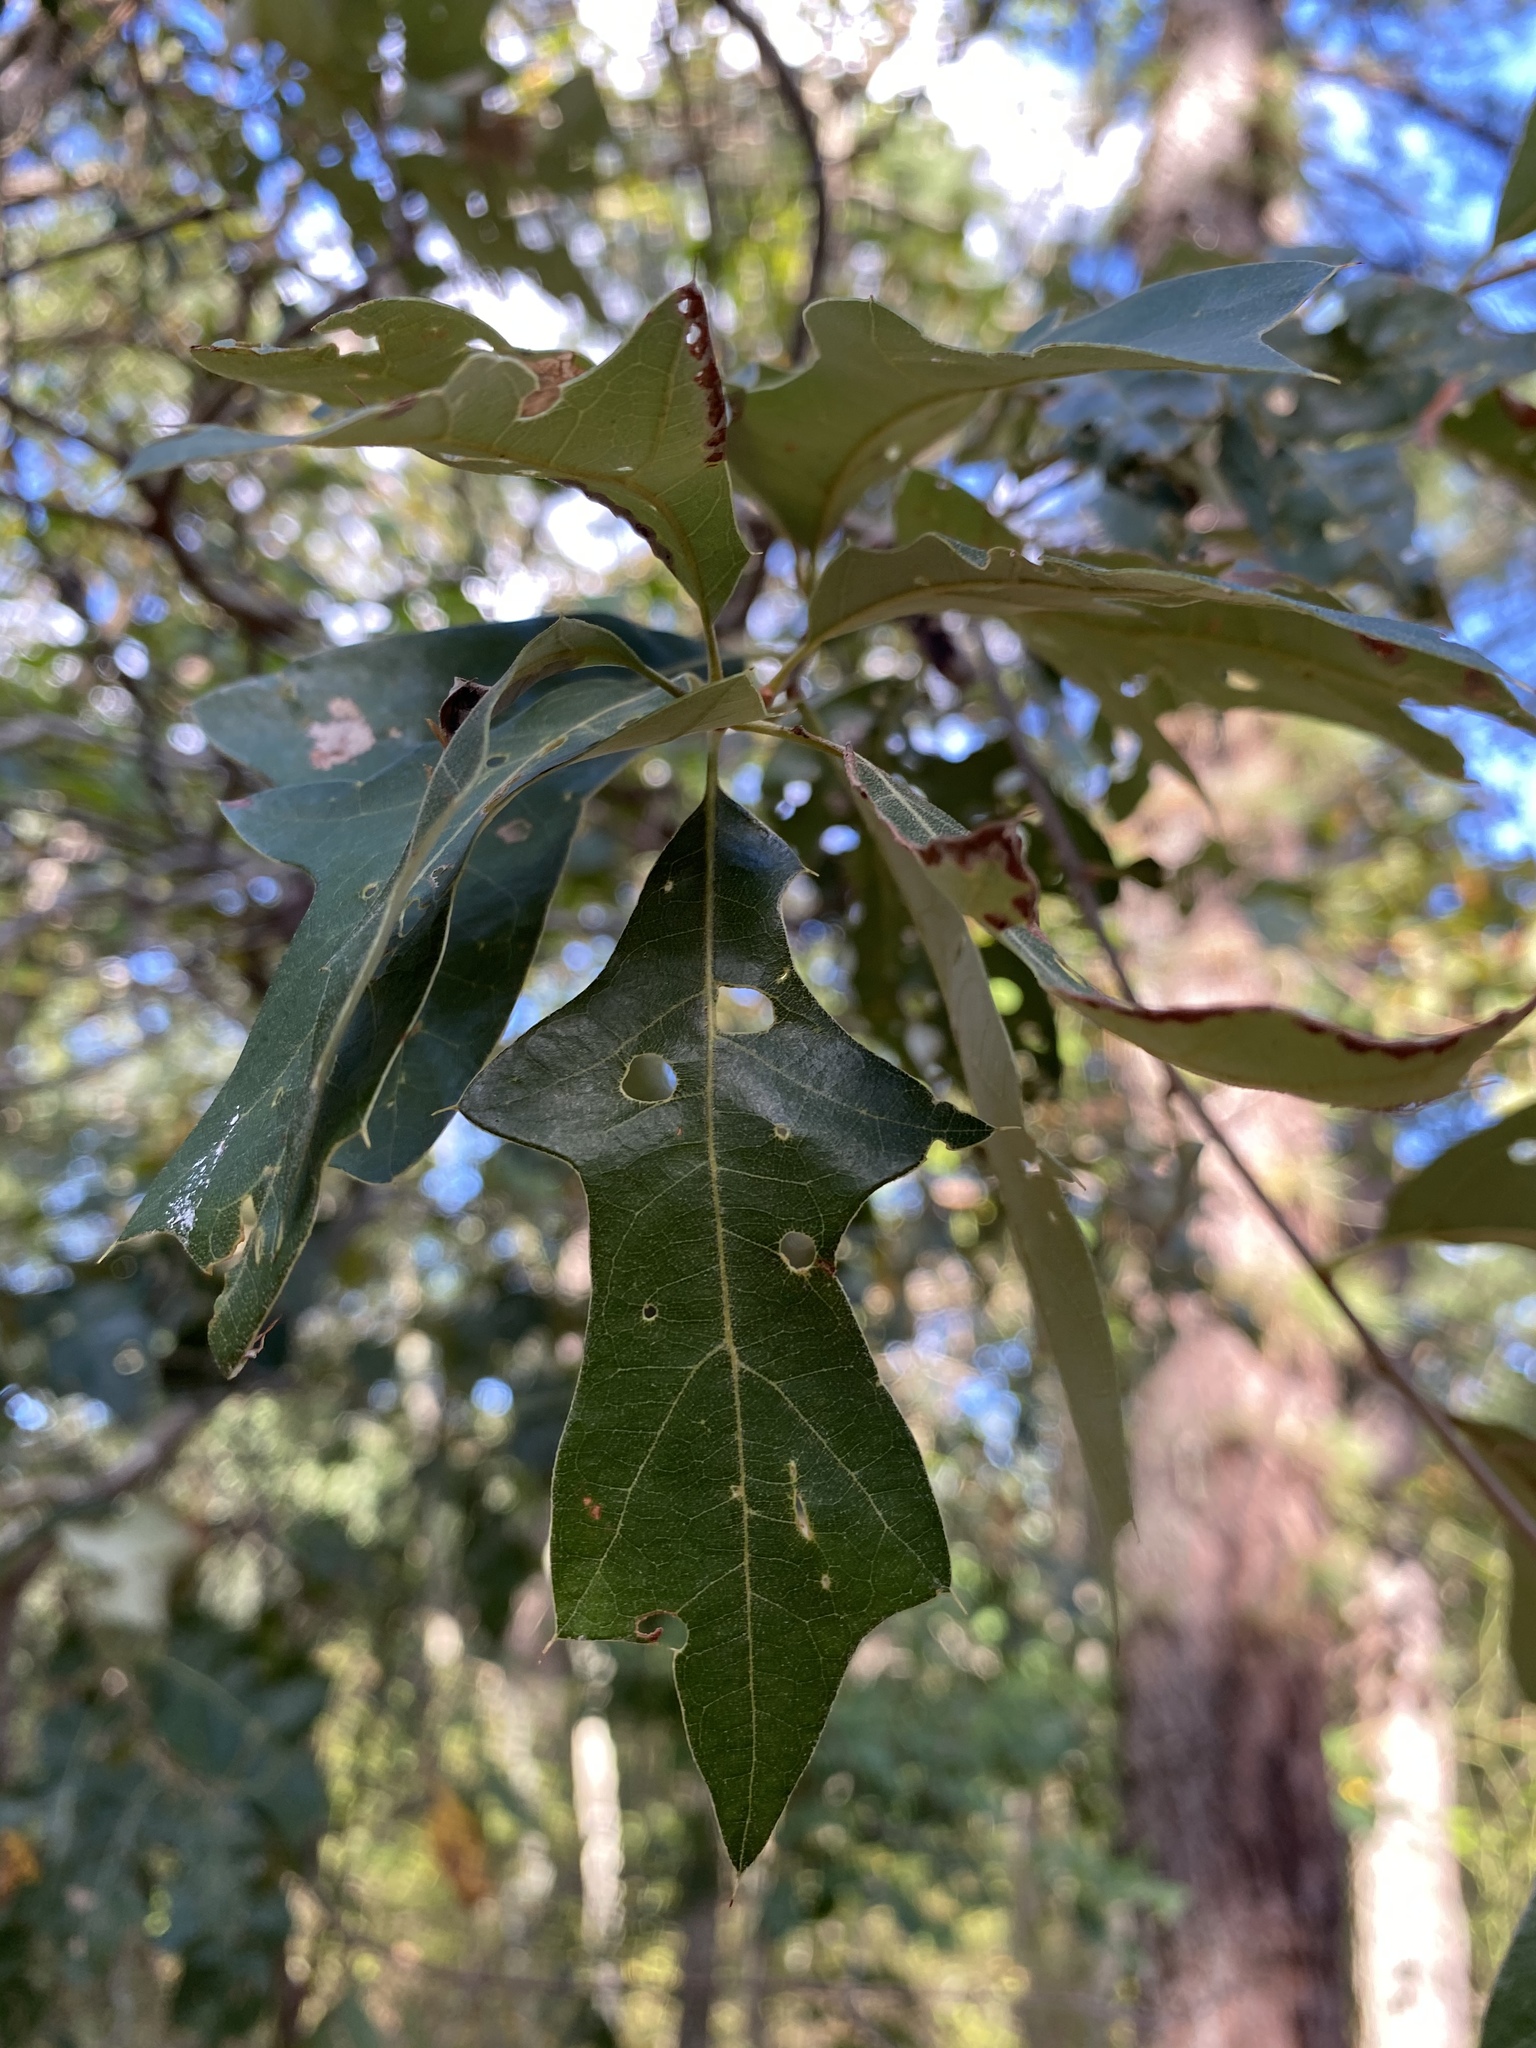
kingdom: Plantae
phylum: Tracheophyta
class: Magnoliopsida
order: Fagales
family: Fagaceae
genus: Quercus
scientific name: Quercus ilicifolia
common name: Bear oak
